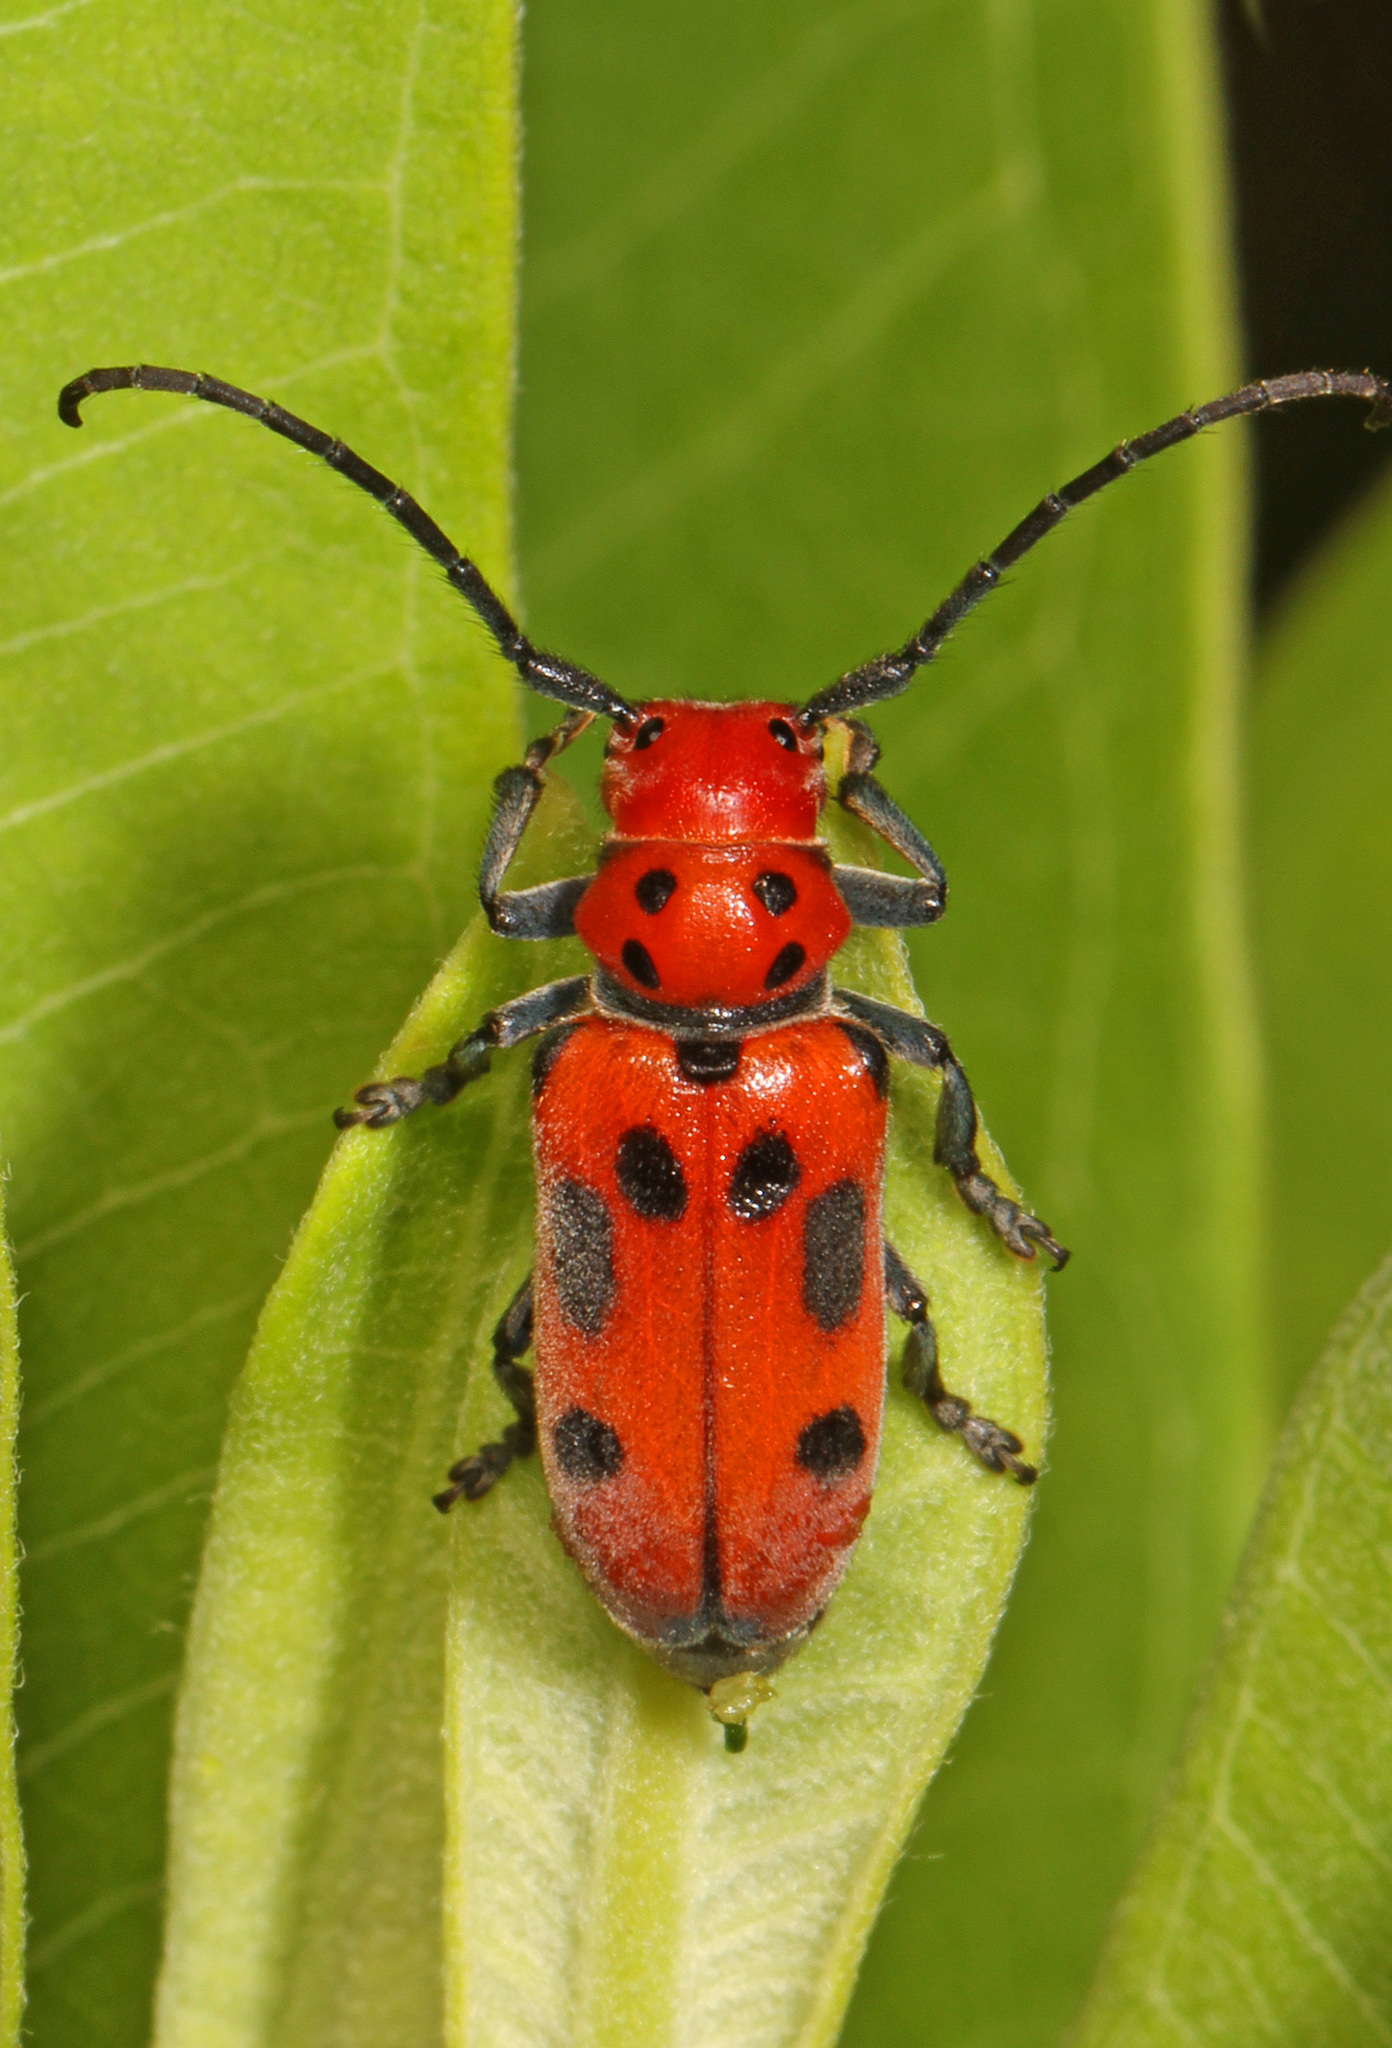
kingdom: Animalia
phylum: Arthropoda
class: Insecta
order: Coleoptera
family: Cerambycidae
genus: Tetraopes
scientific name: Tetraopes tetrophthalmus
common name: Red milkweed beetle
